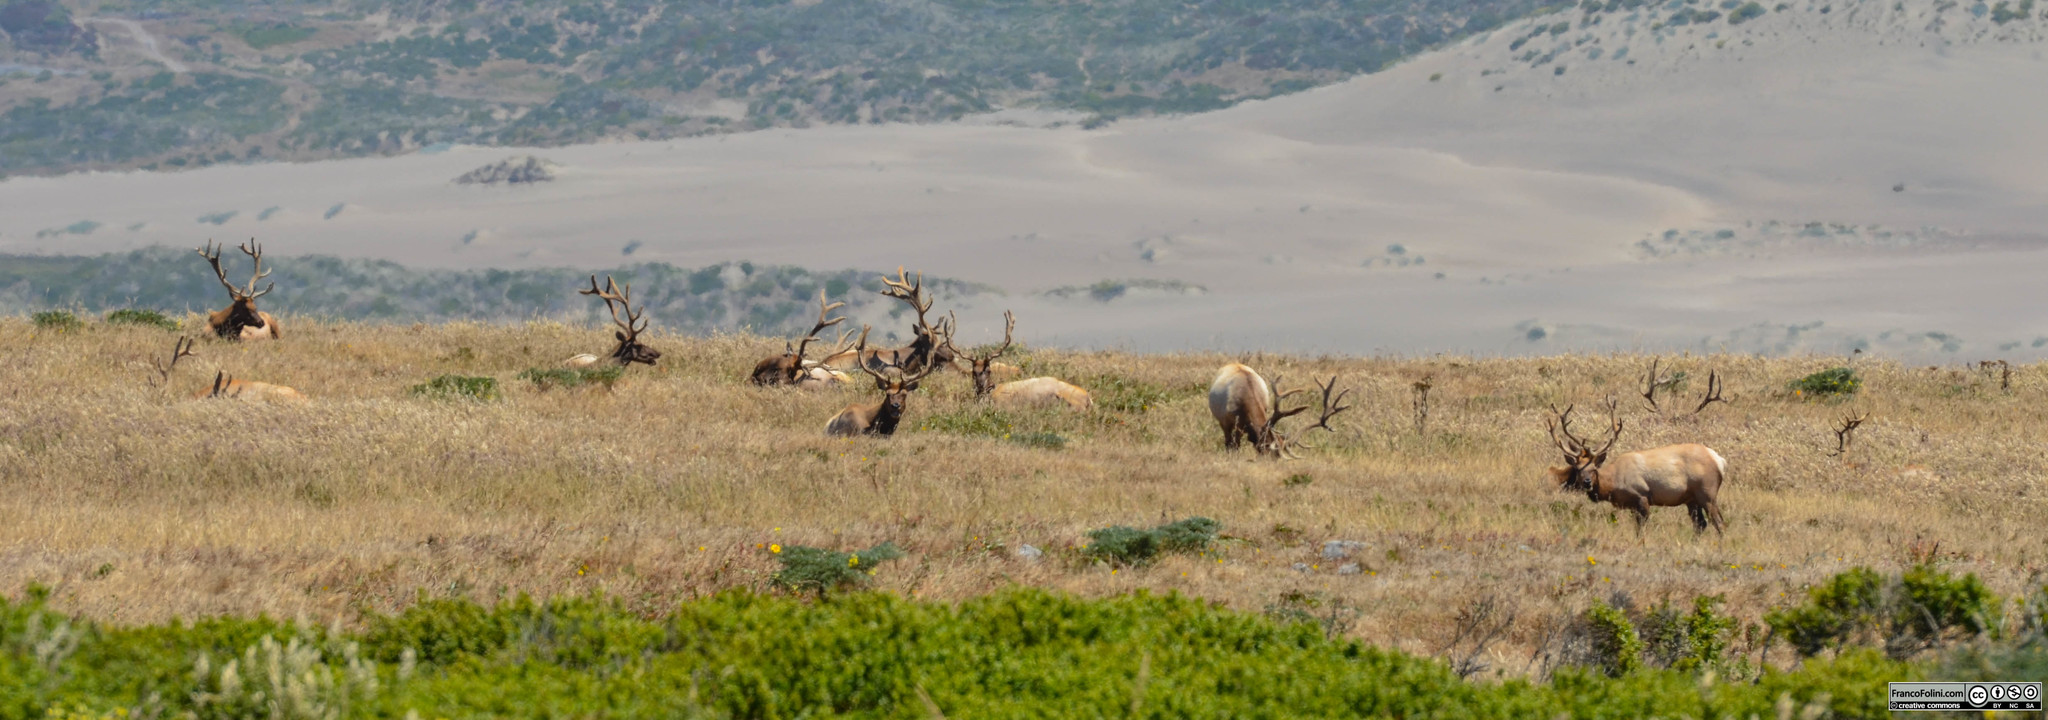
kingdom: Animalia
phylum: Chordata
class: Mammalia
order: Artiodactyla
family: Cervidae
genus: Cervus
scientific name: Cervus elaphus
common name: Red deer
